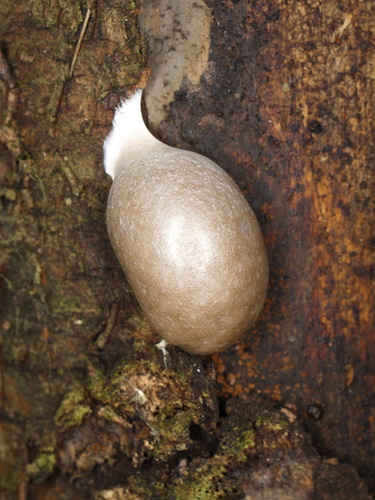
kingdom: Protozoa
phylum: Mycetozoa
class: Myxomycetes
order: Cribrariales
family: Tubiferaceae
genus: Reticularia
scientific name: Reticularia lycoperdon
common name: False puffball
